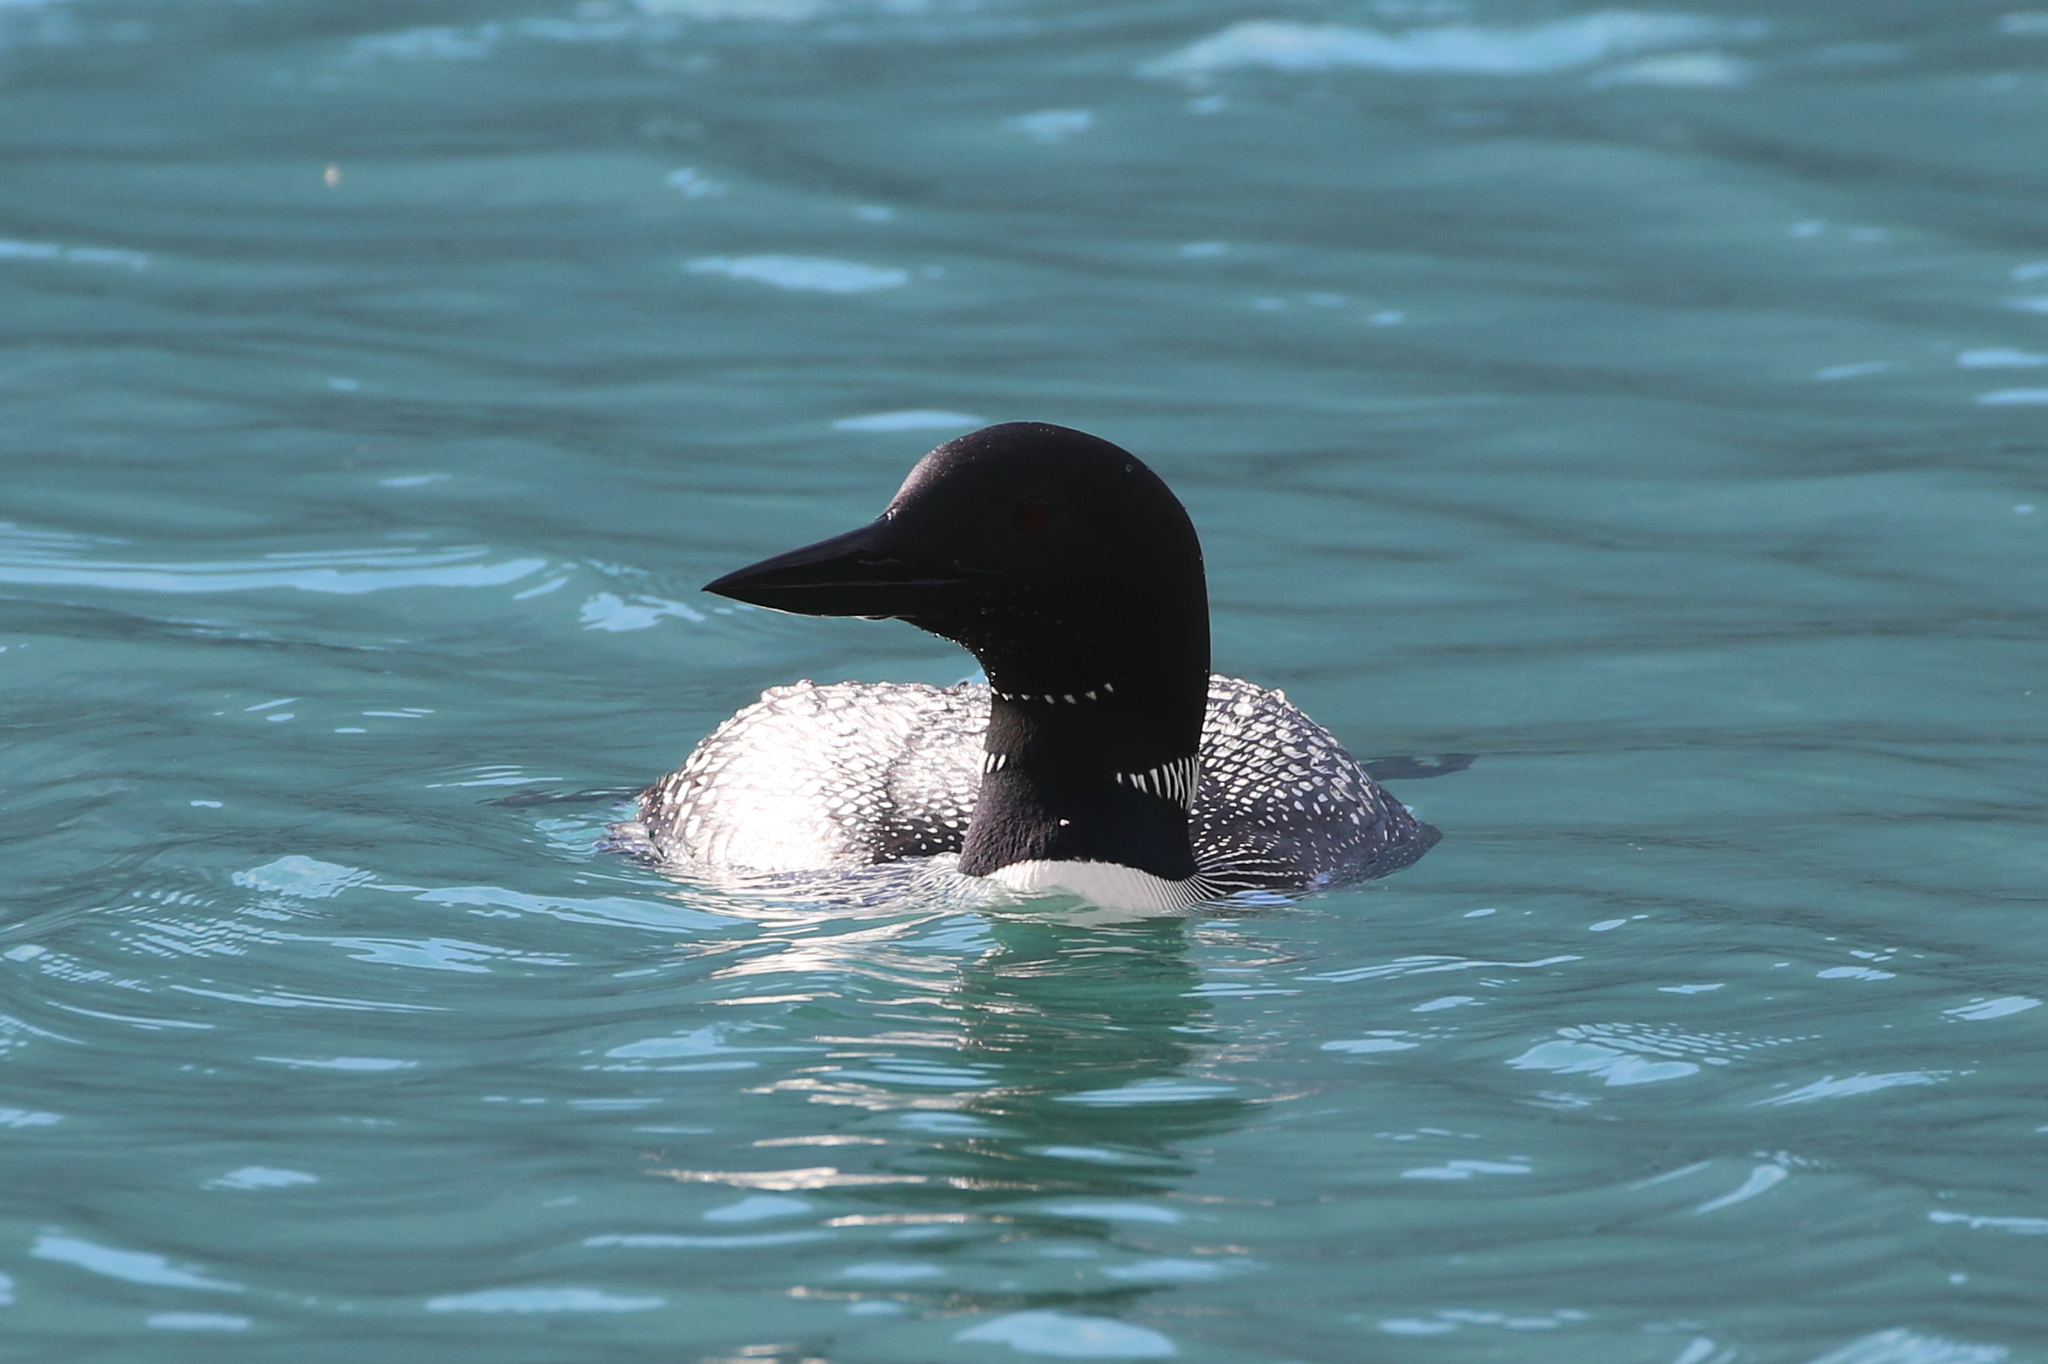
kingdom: Animalia
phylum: Chordata
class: Aves
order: Gaviiformes
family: Gaviidae
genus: Gavia
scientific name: Gavia immer
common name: Common loon
